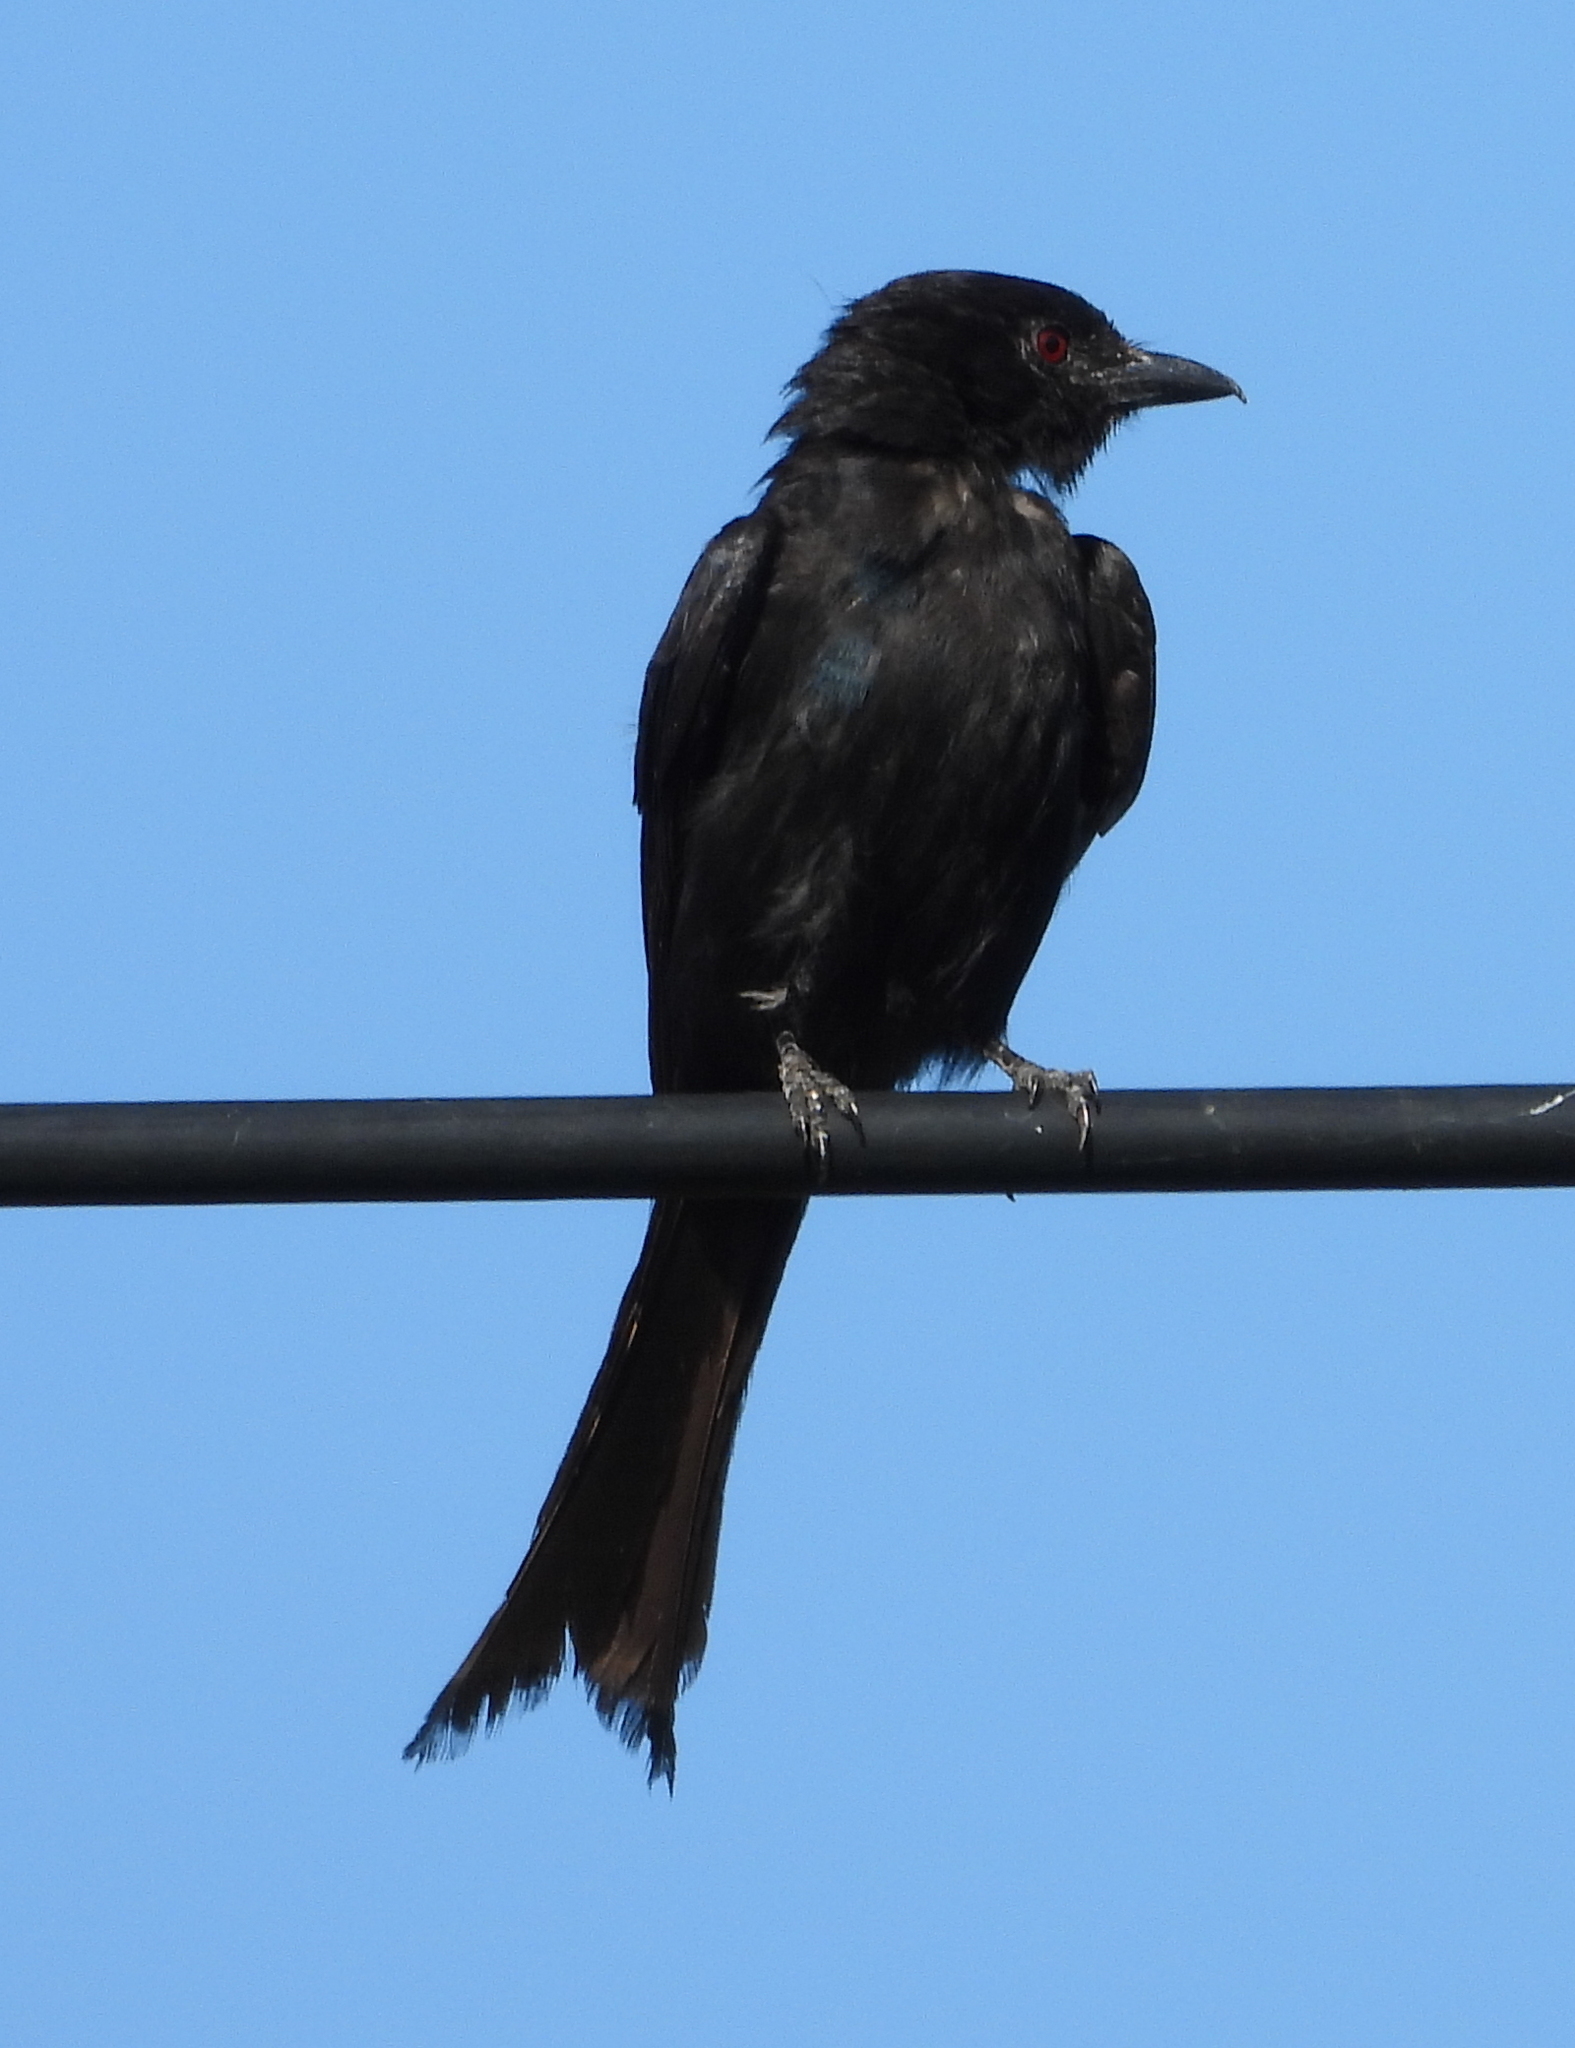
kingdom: Animalia
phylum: Chordata
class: Aves
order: Passeriformes
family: Dicruridae
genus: Dicrurus
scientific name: Dicrurus adsimilis
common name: Fork-tailed drongo
